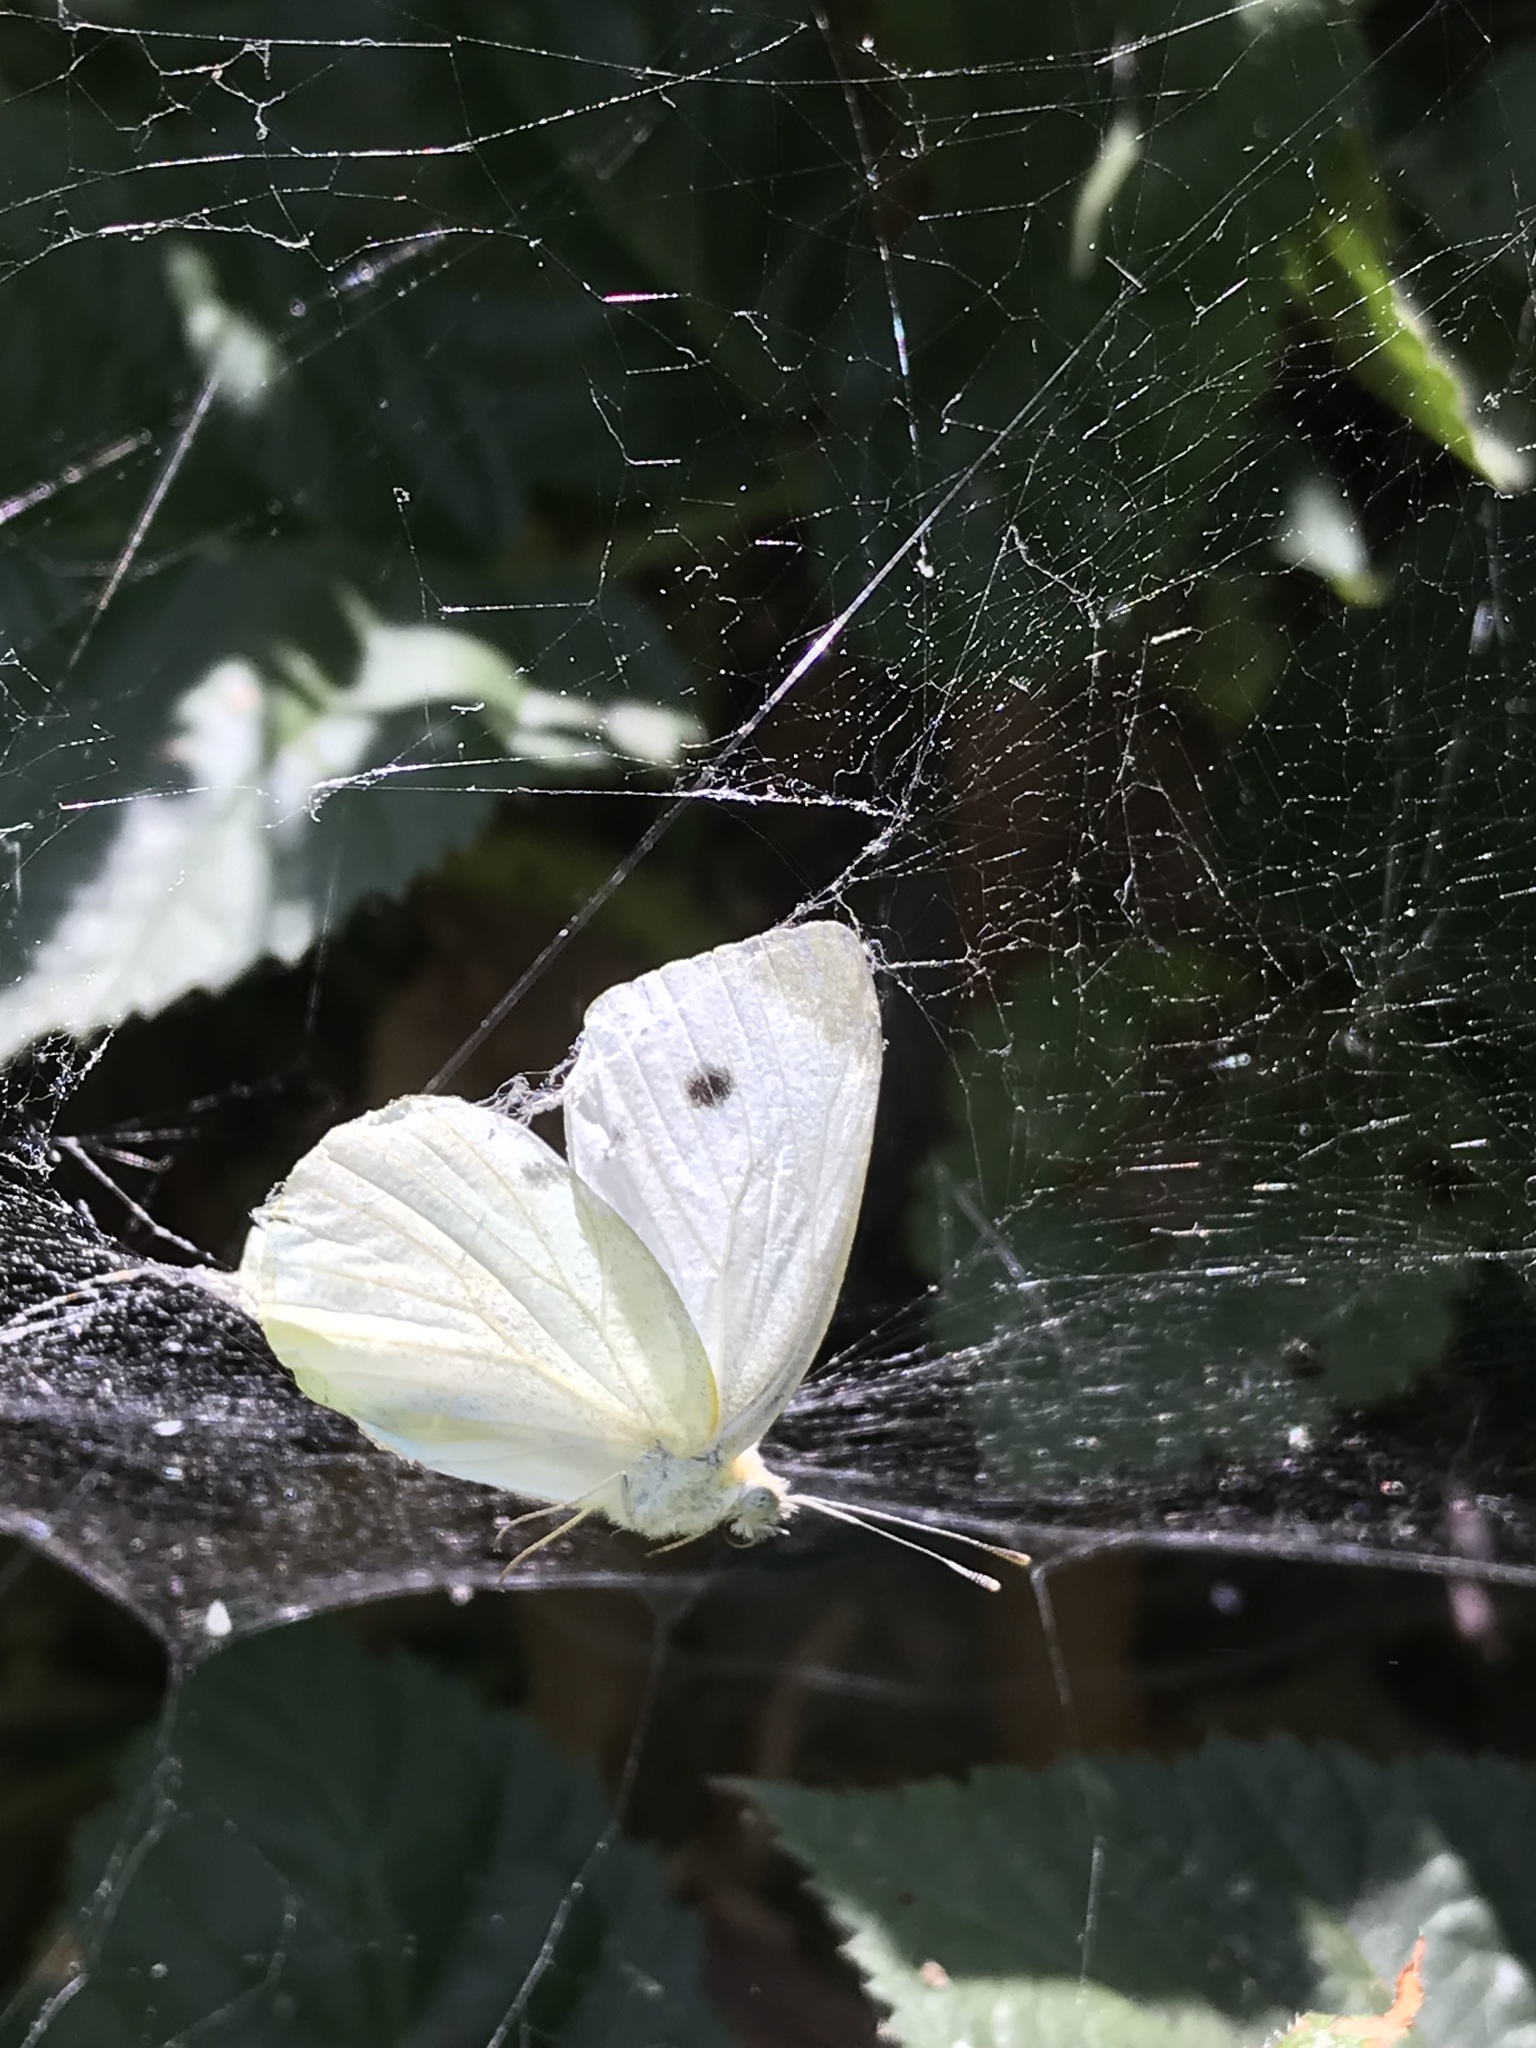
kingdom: Animalia
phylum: Arthropoda
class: Insecta
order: Lepidoptera
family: Pieridae
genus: Pieris
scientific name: Pieris rapae
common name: Small white
